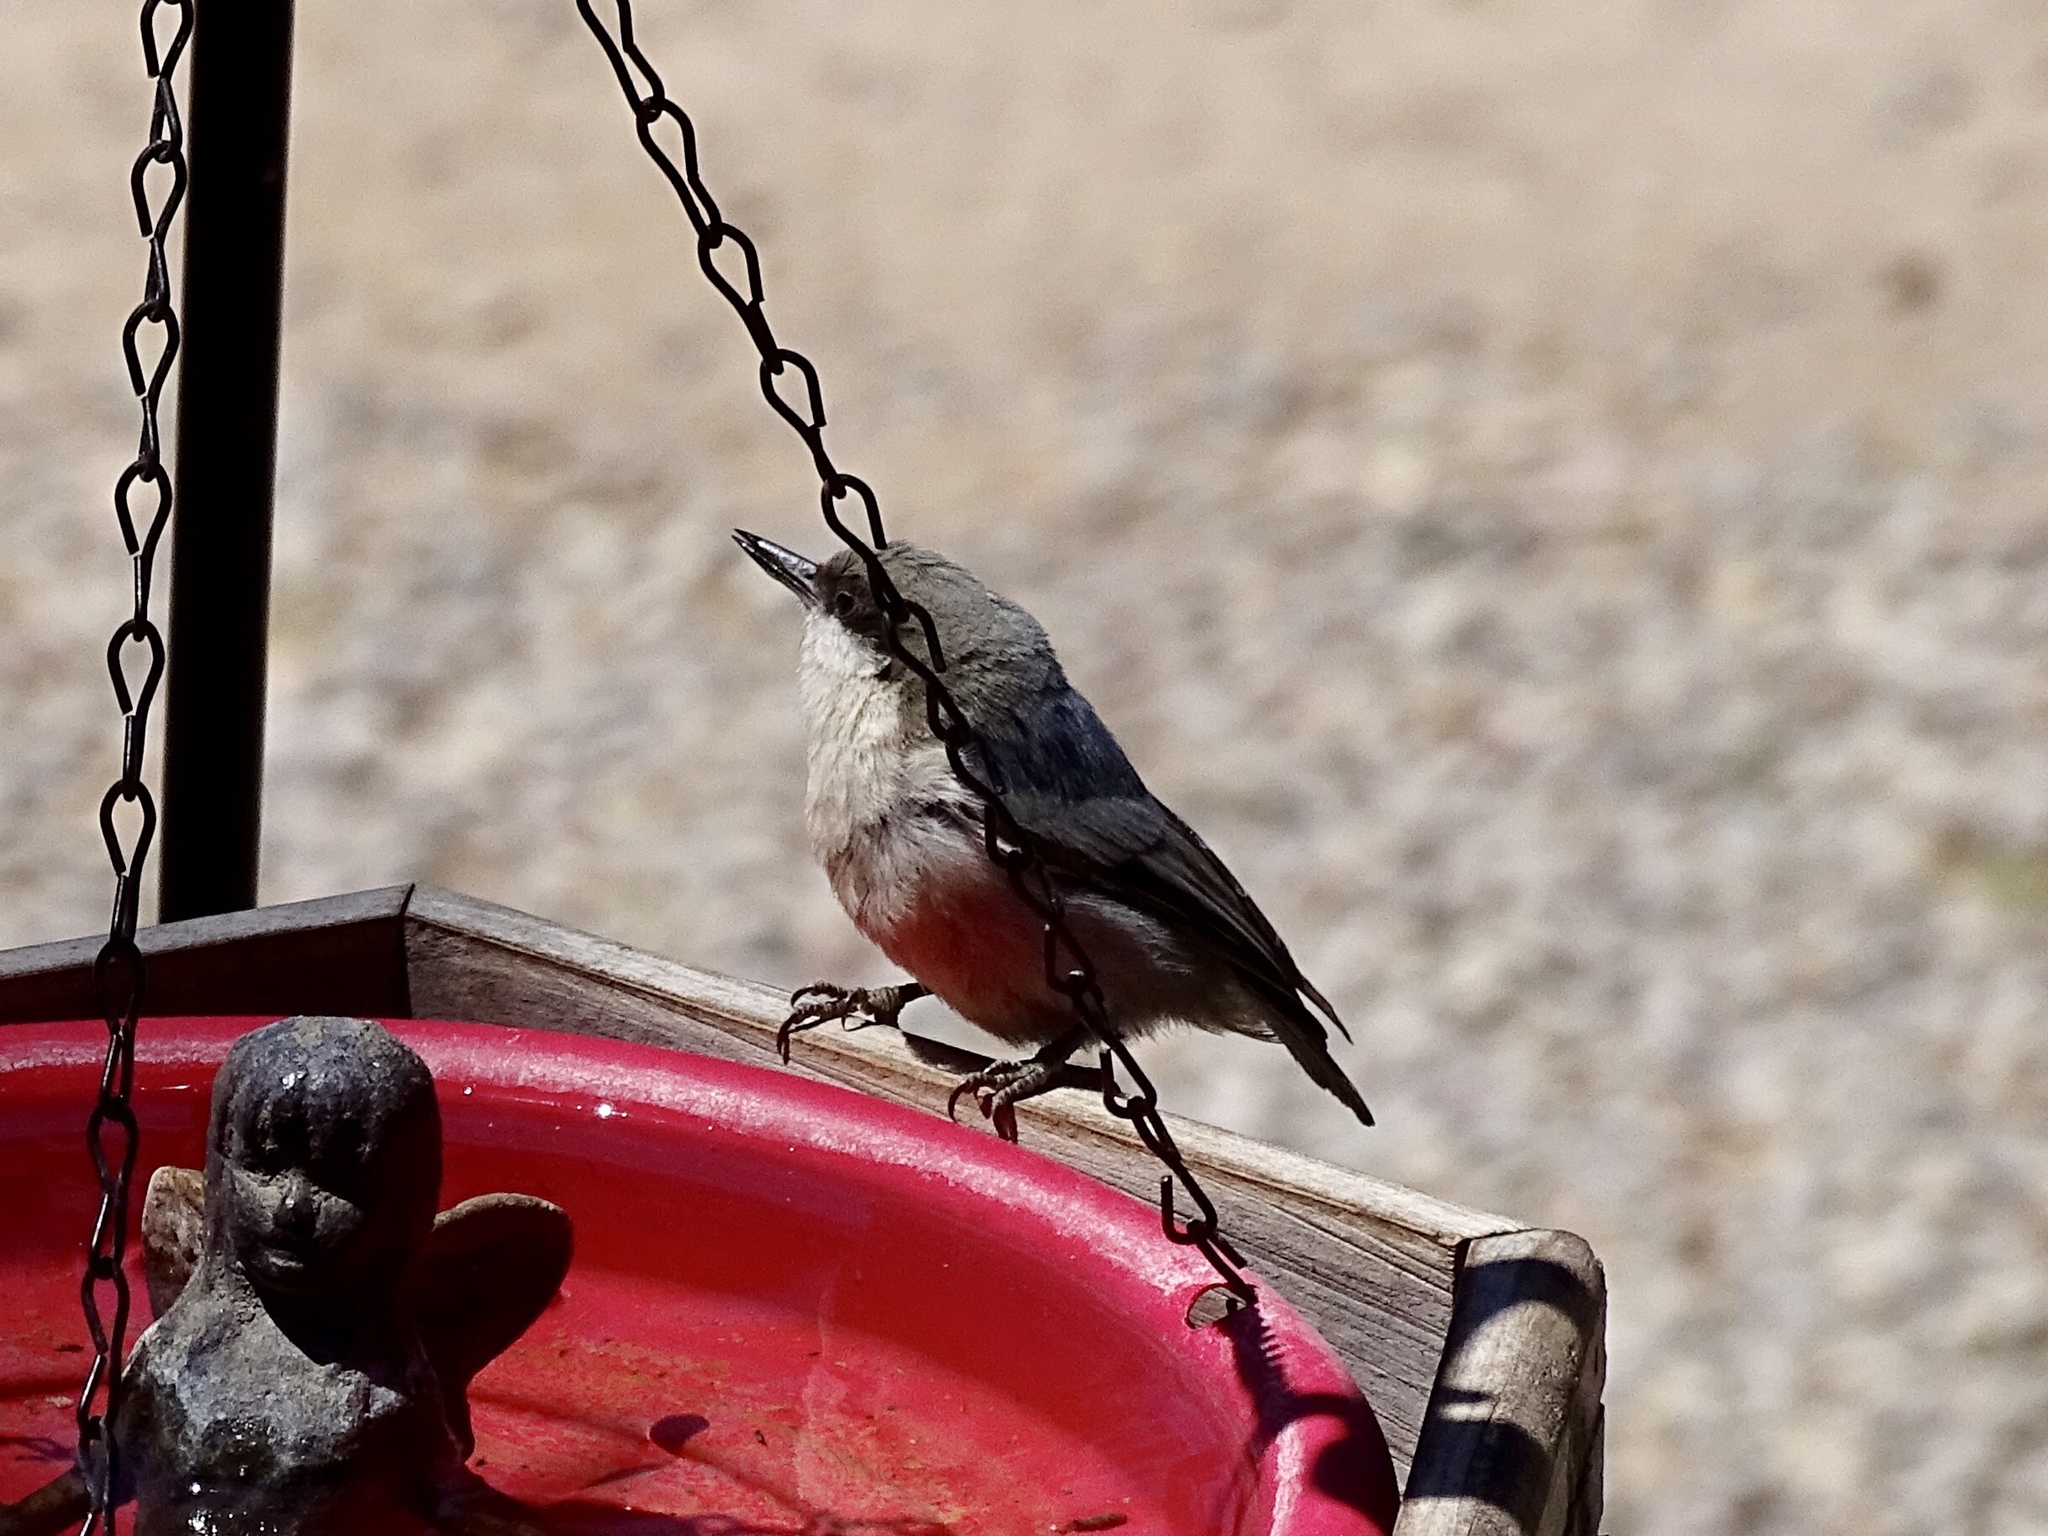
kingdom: Animalia
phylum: Chordata
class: Aves
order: Passeriformes
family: Sittidae
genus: Sitta
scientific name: Sitta pygmaea
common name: Pygmy nuthatch
